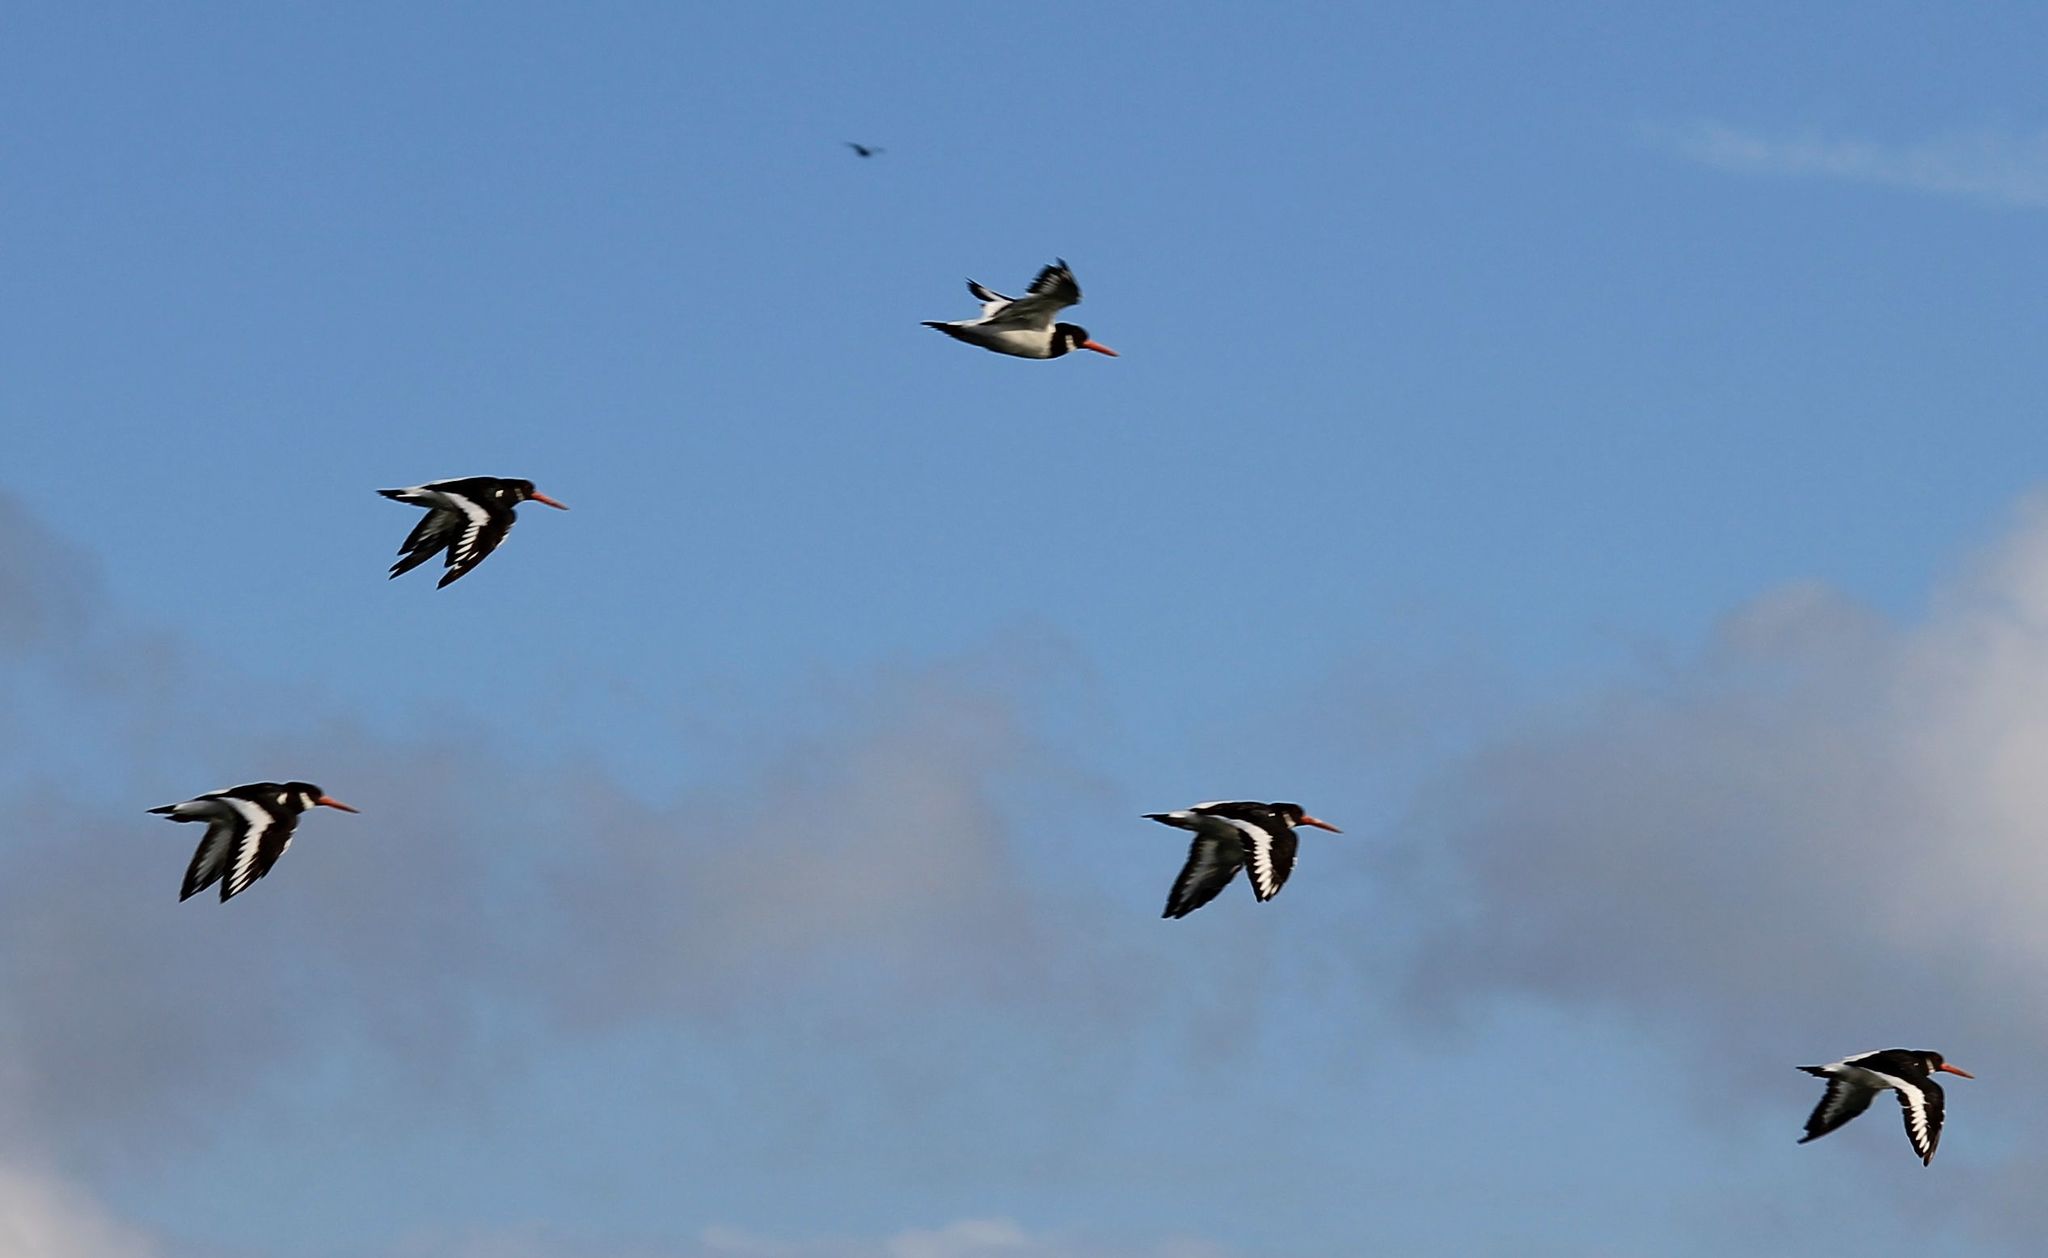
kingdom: Animalia
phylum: Chordata
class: Aves
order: Charadriiformes
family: Haematopodidae
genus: Haematopus
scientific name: Haematopus ostralegus
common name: Eurasian oystercatcher
